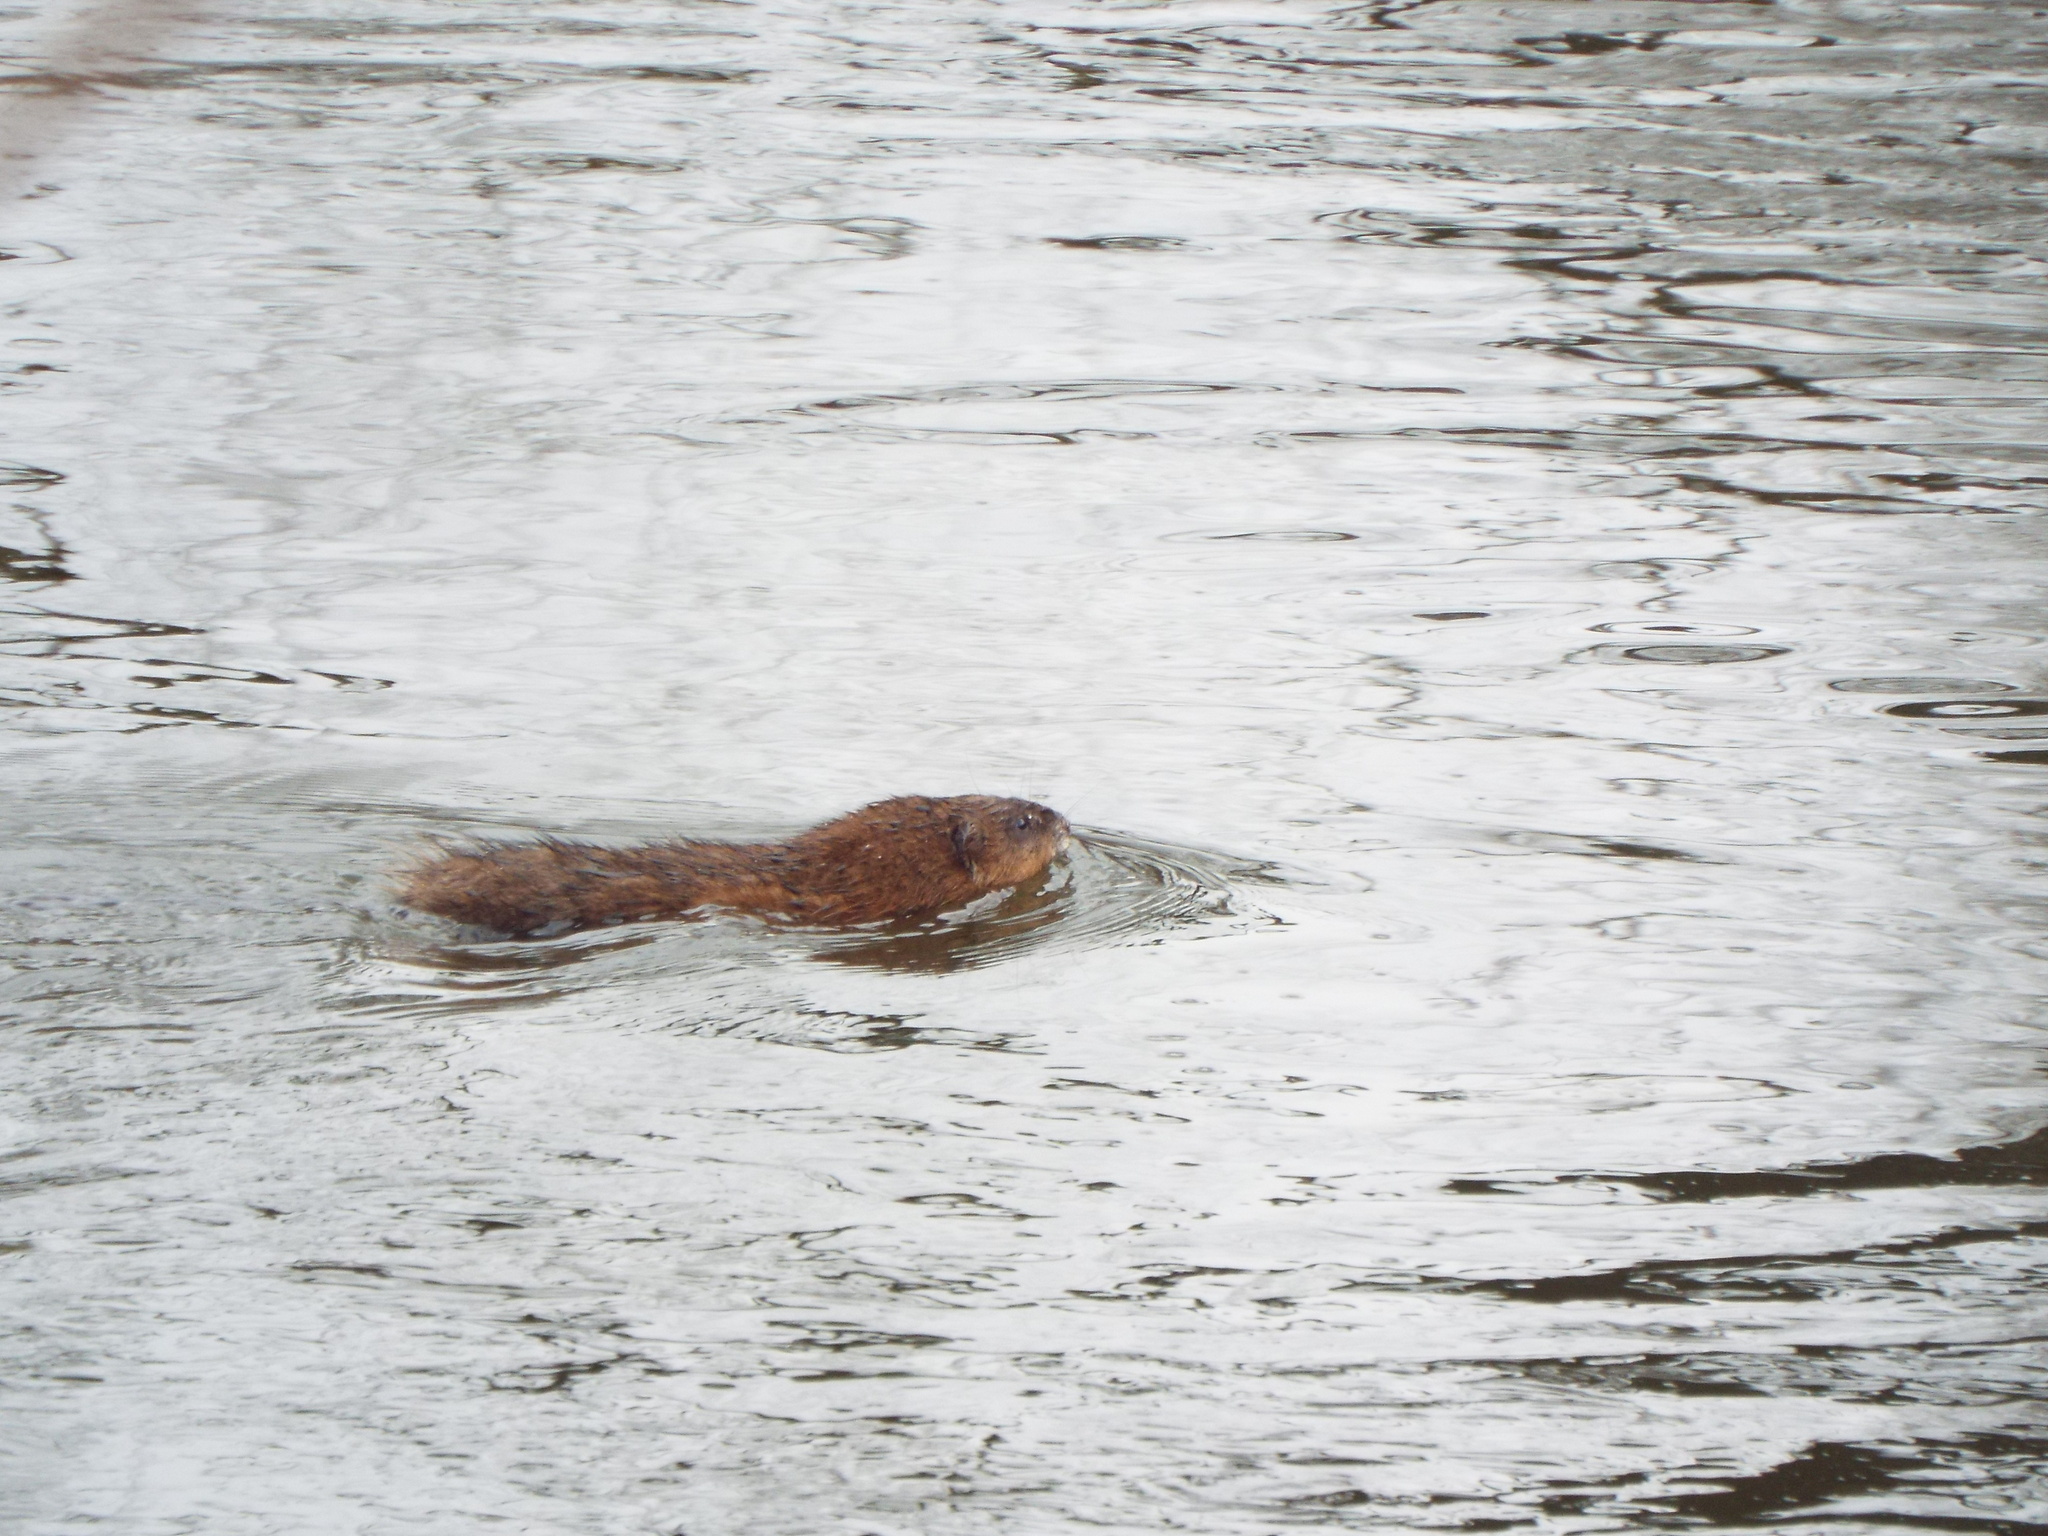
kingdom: Animalia
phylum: Chordata
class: Mammalia
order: Rodentia
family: Cricetidae
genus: Ondatra
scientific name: Ondatra zibethicus
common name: Muskrat
